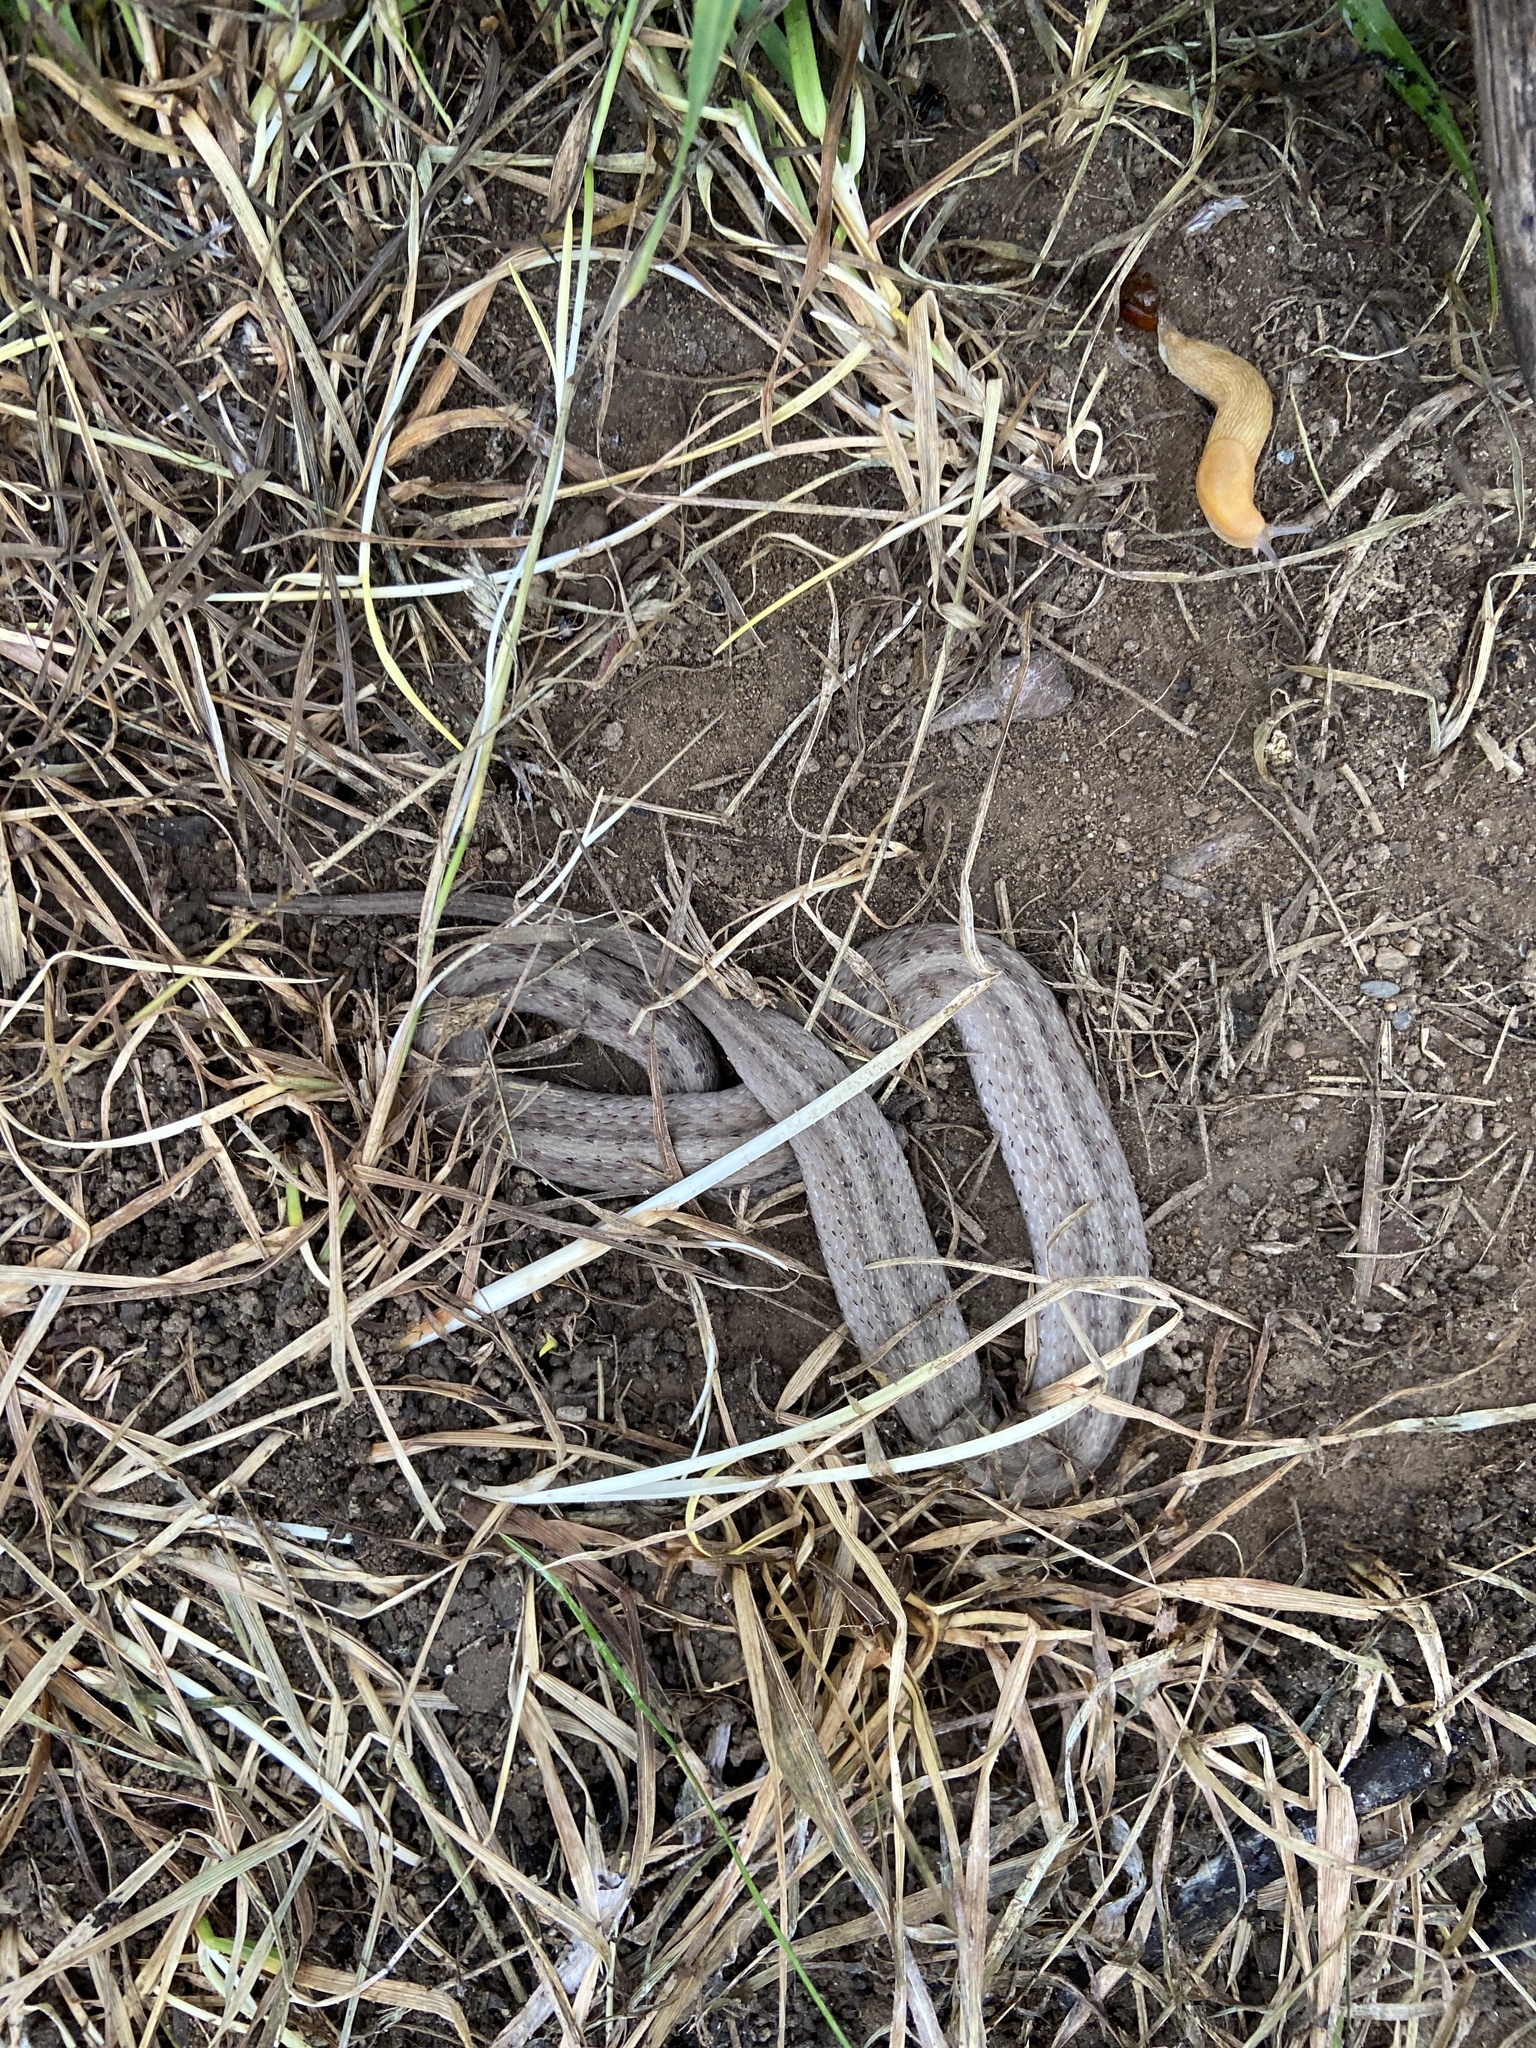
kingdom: Animalia
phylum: Chordata
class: Squamata
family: Colubridae
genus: Storeria
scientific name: Storeria dekayi
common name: (dekay’s) brown snake
